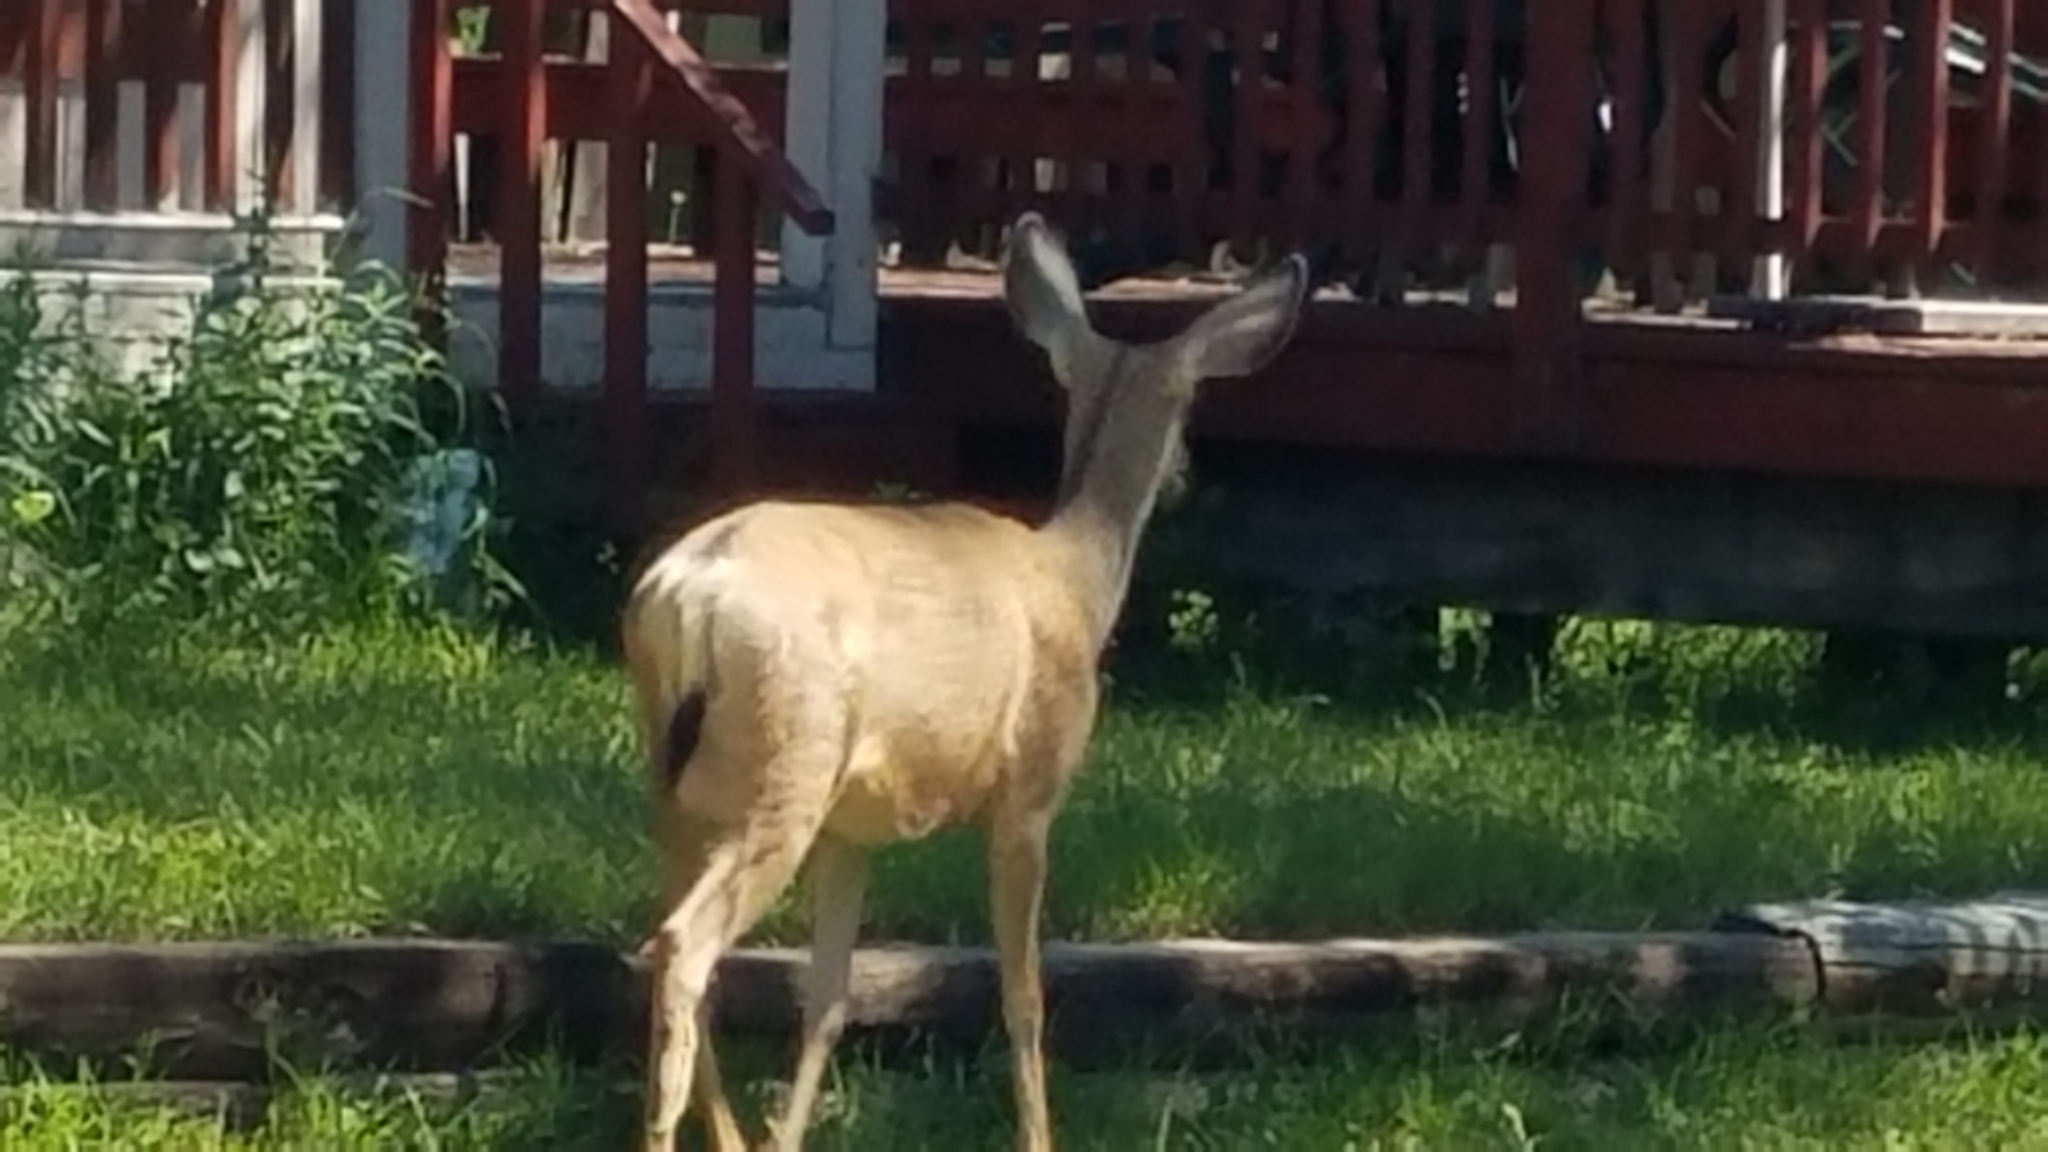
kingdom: Animalia
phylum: Chordata
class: Mammalia
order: Artiodactyla
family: Cervidae
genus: Odocoileus
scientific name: Odocoileus hemionus
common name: Mule deer
